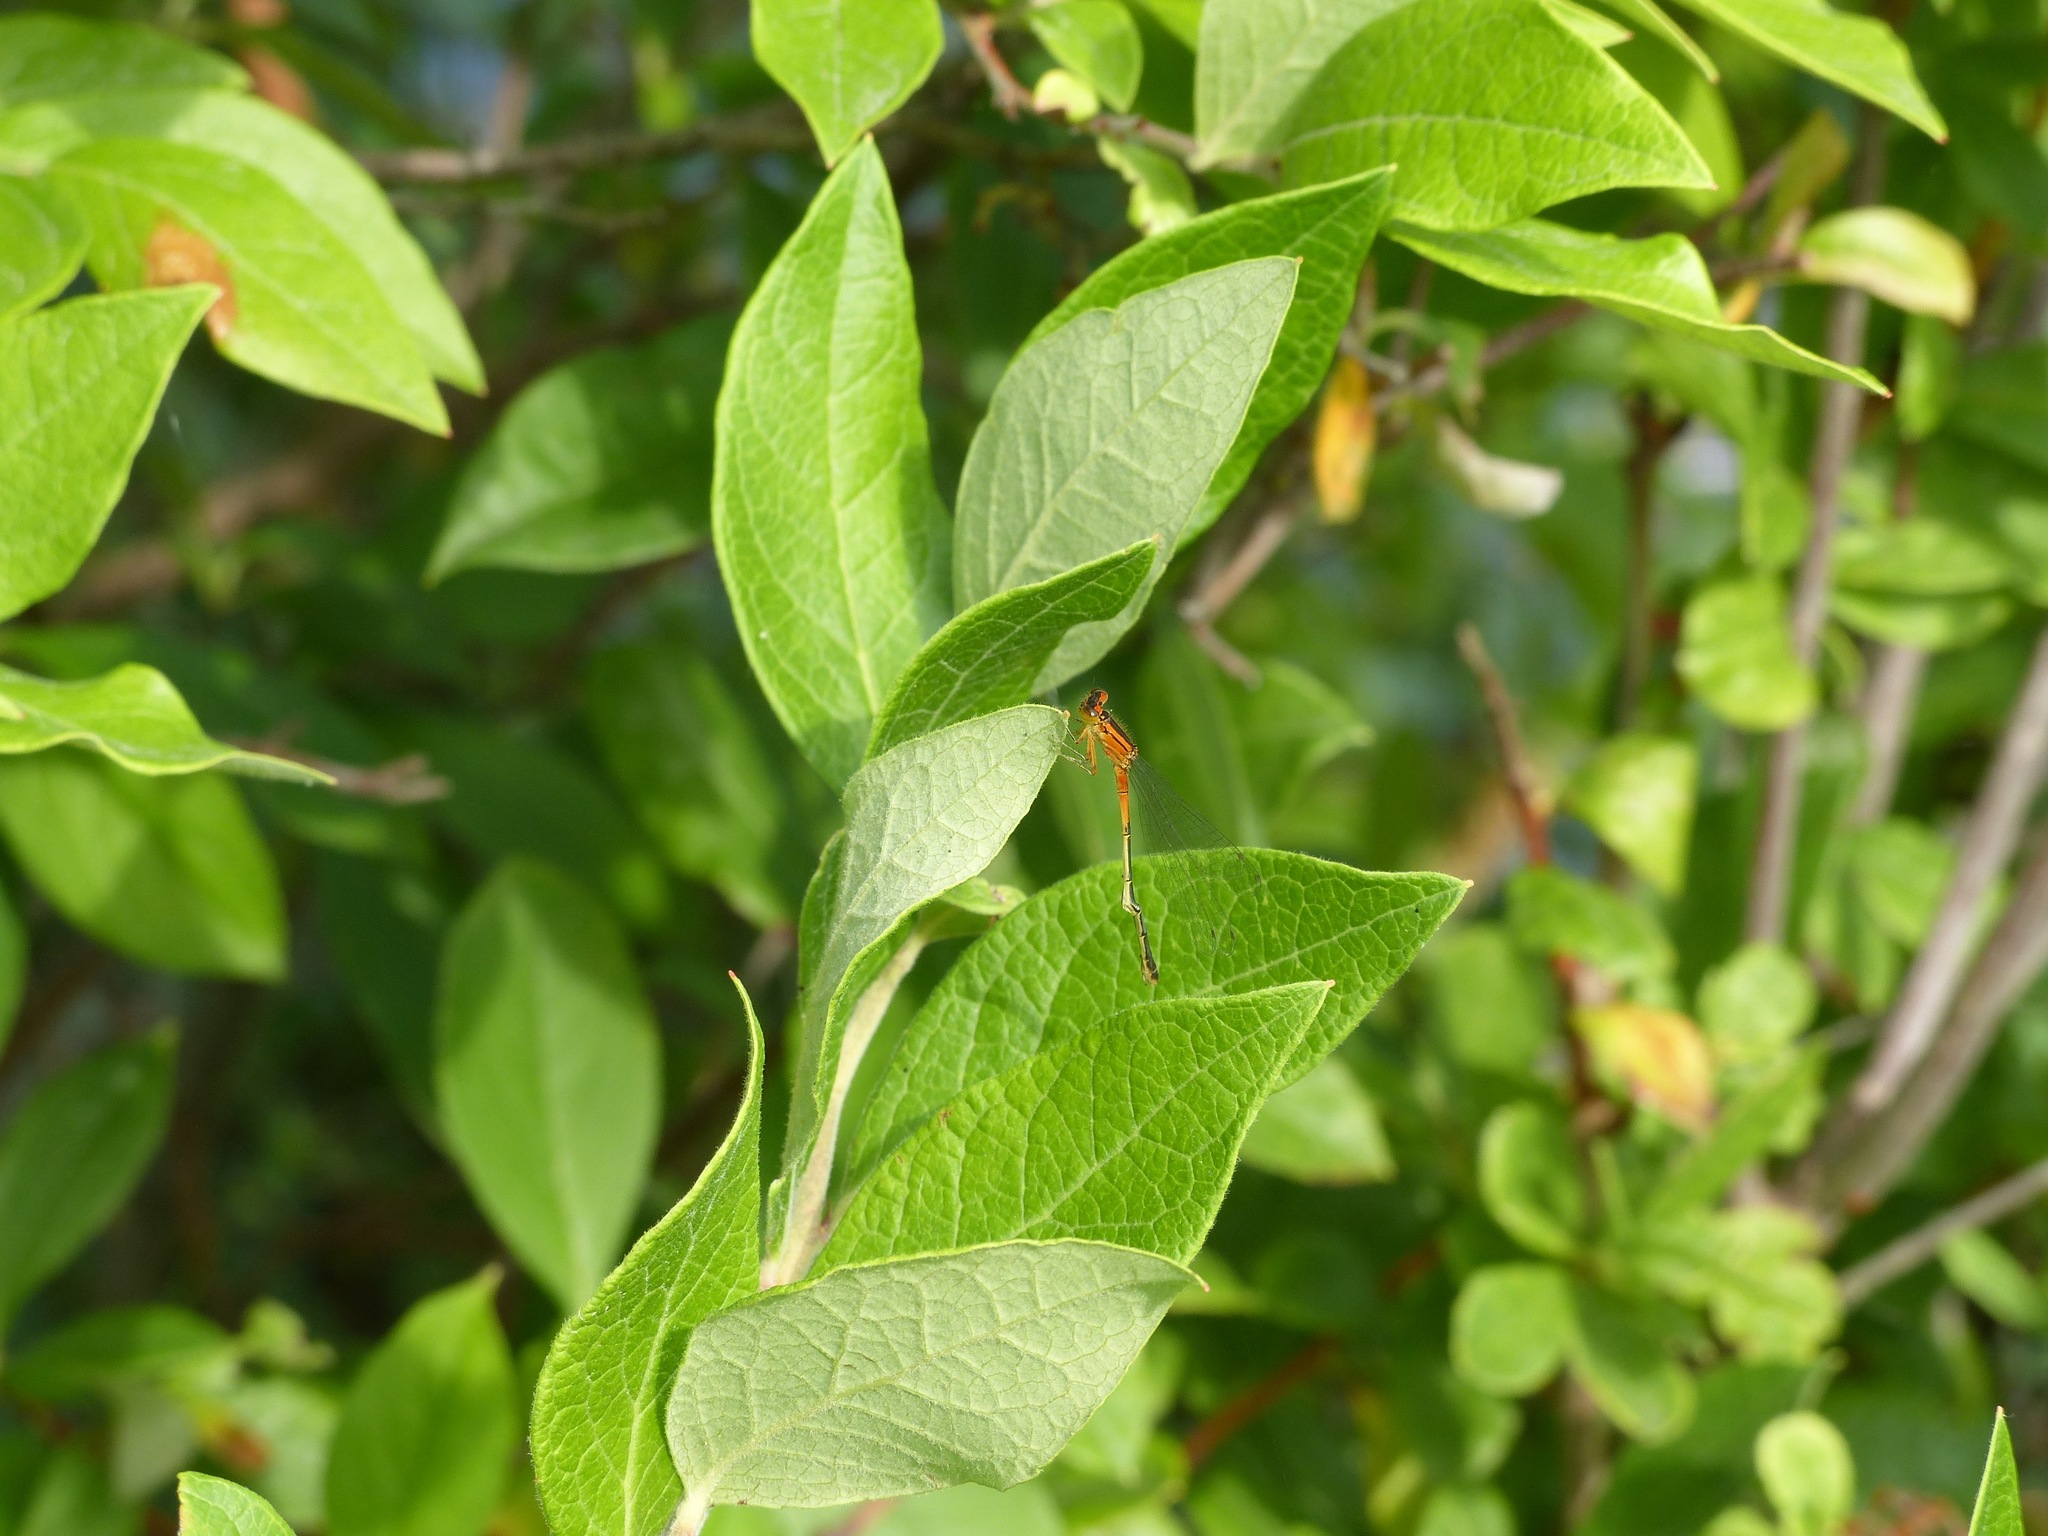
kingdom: Animalia
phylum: Arthropoda
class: Insecta
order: Odonata
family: Coenagrionidae
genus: Ischnura
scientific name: Ischnura verticalis
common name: Eastern forktail
